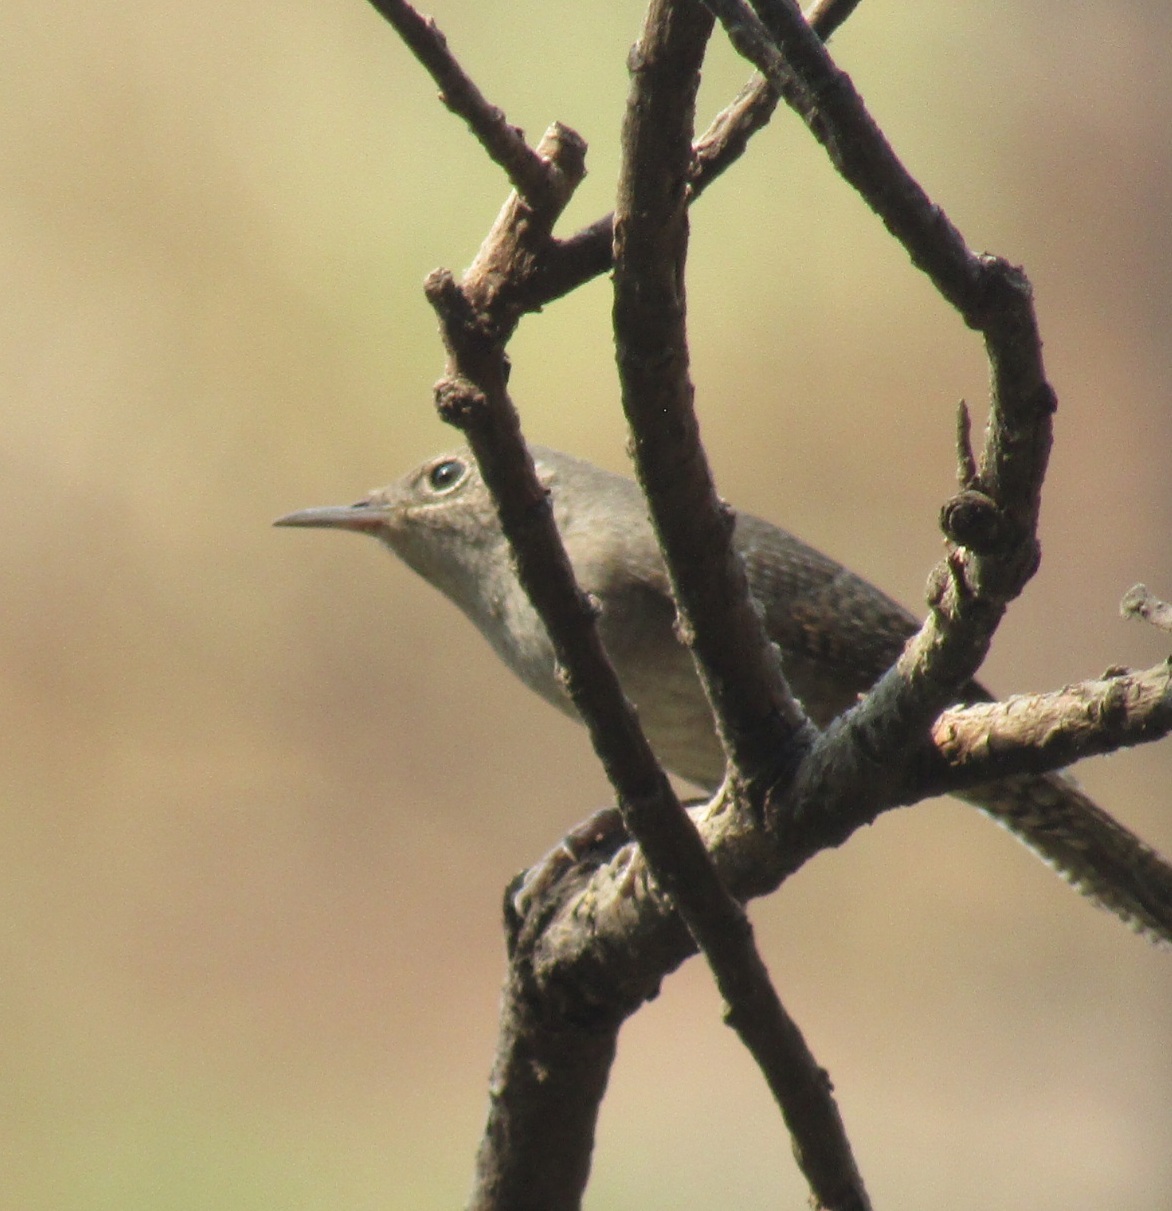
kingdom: Animalia
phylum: Chordata
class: Aves
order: Passeriformes
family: Troglodytidae
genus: Troglodytes
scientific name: Troglodytes aedon
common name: House wren
